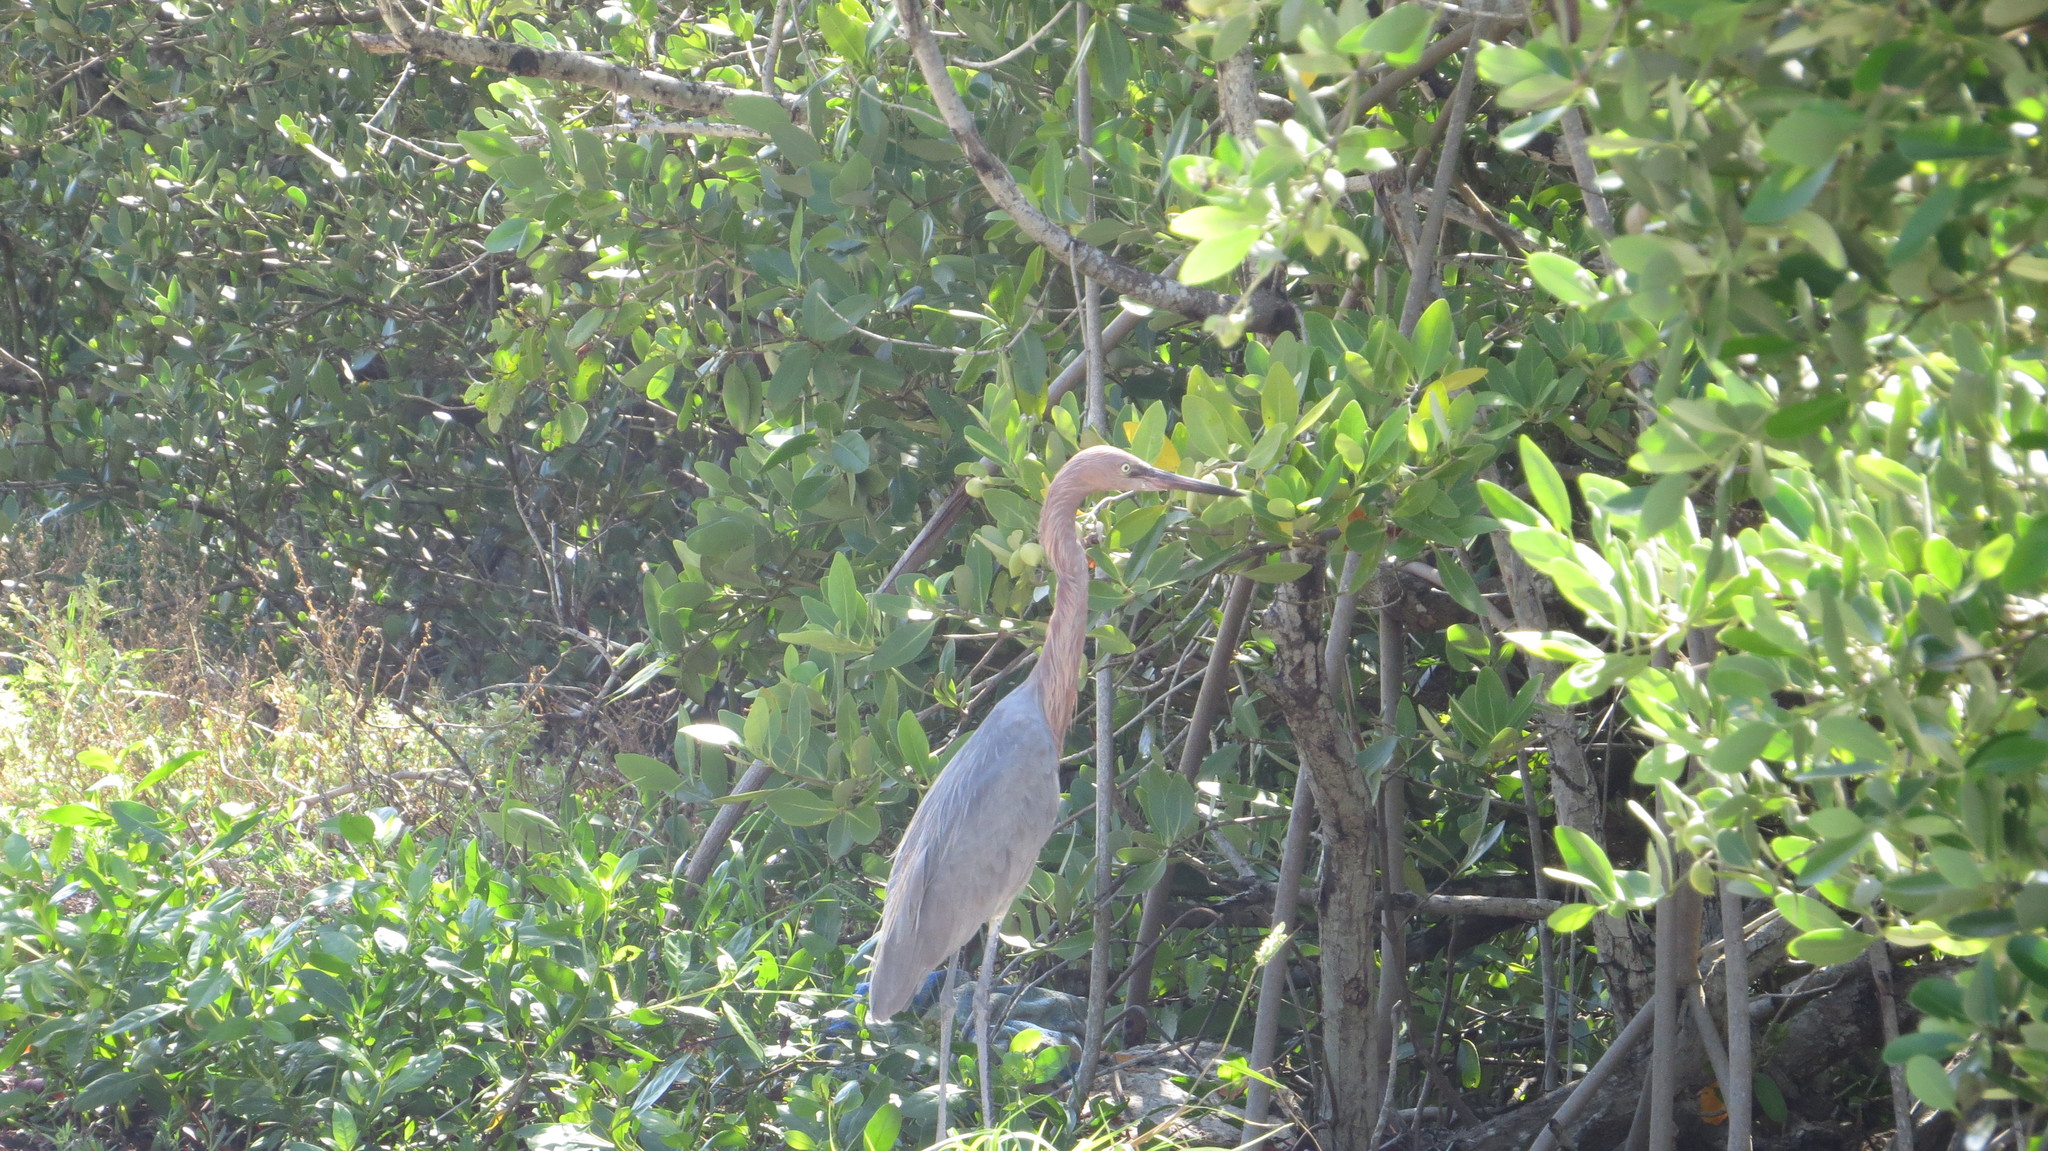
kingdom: Animalia
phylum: Chordata
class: Aves
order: Pelecaniformes
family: Ardeidae
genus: Egretta
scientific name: Egretta rufescens
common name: Reddish egret
